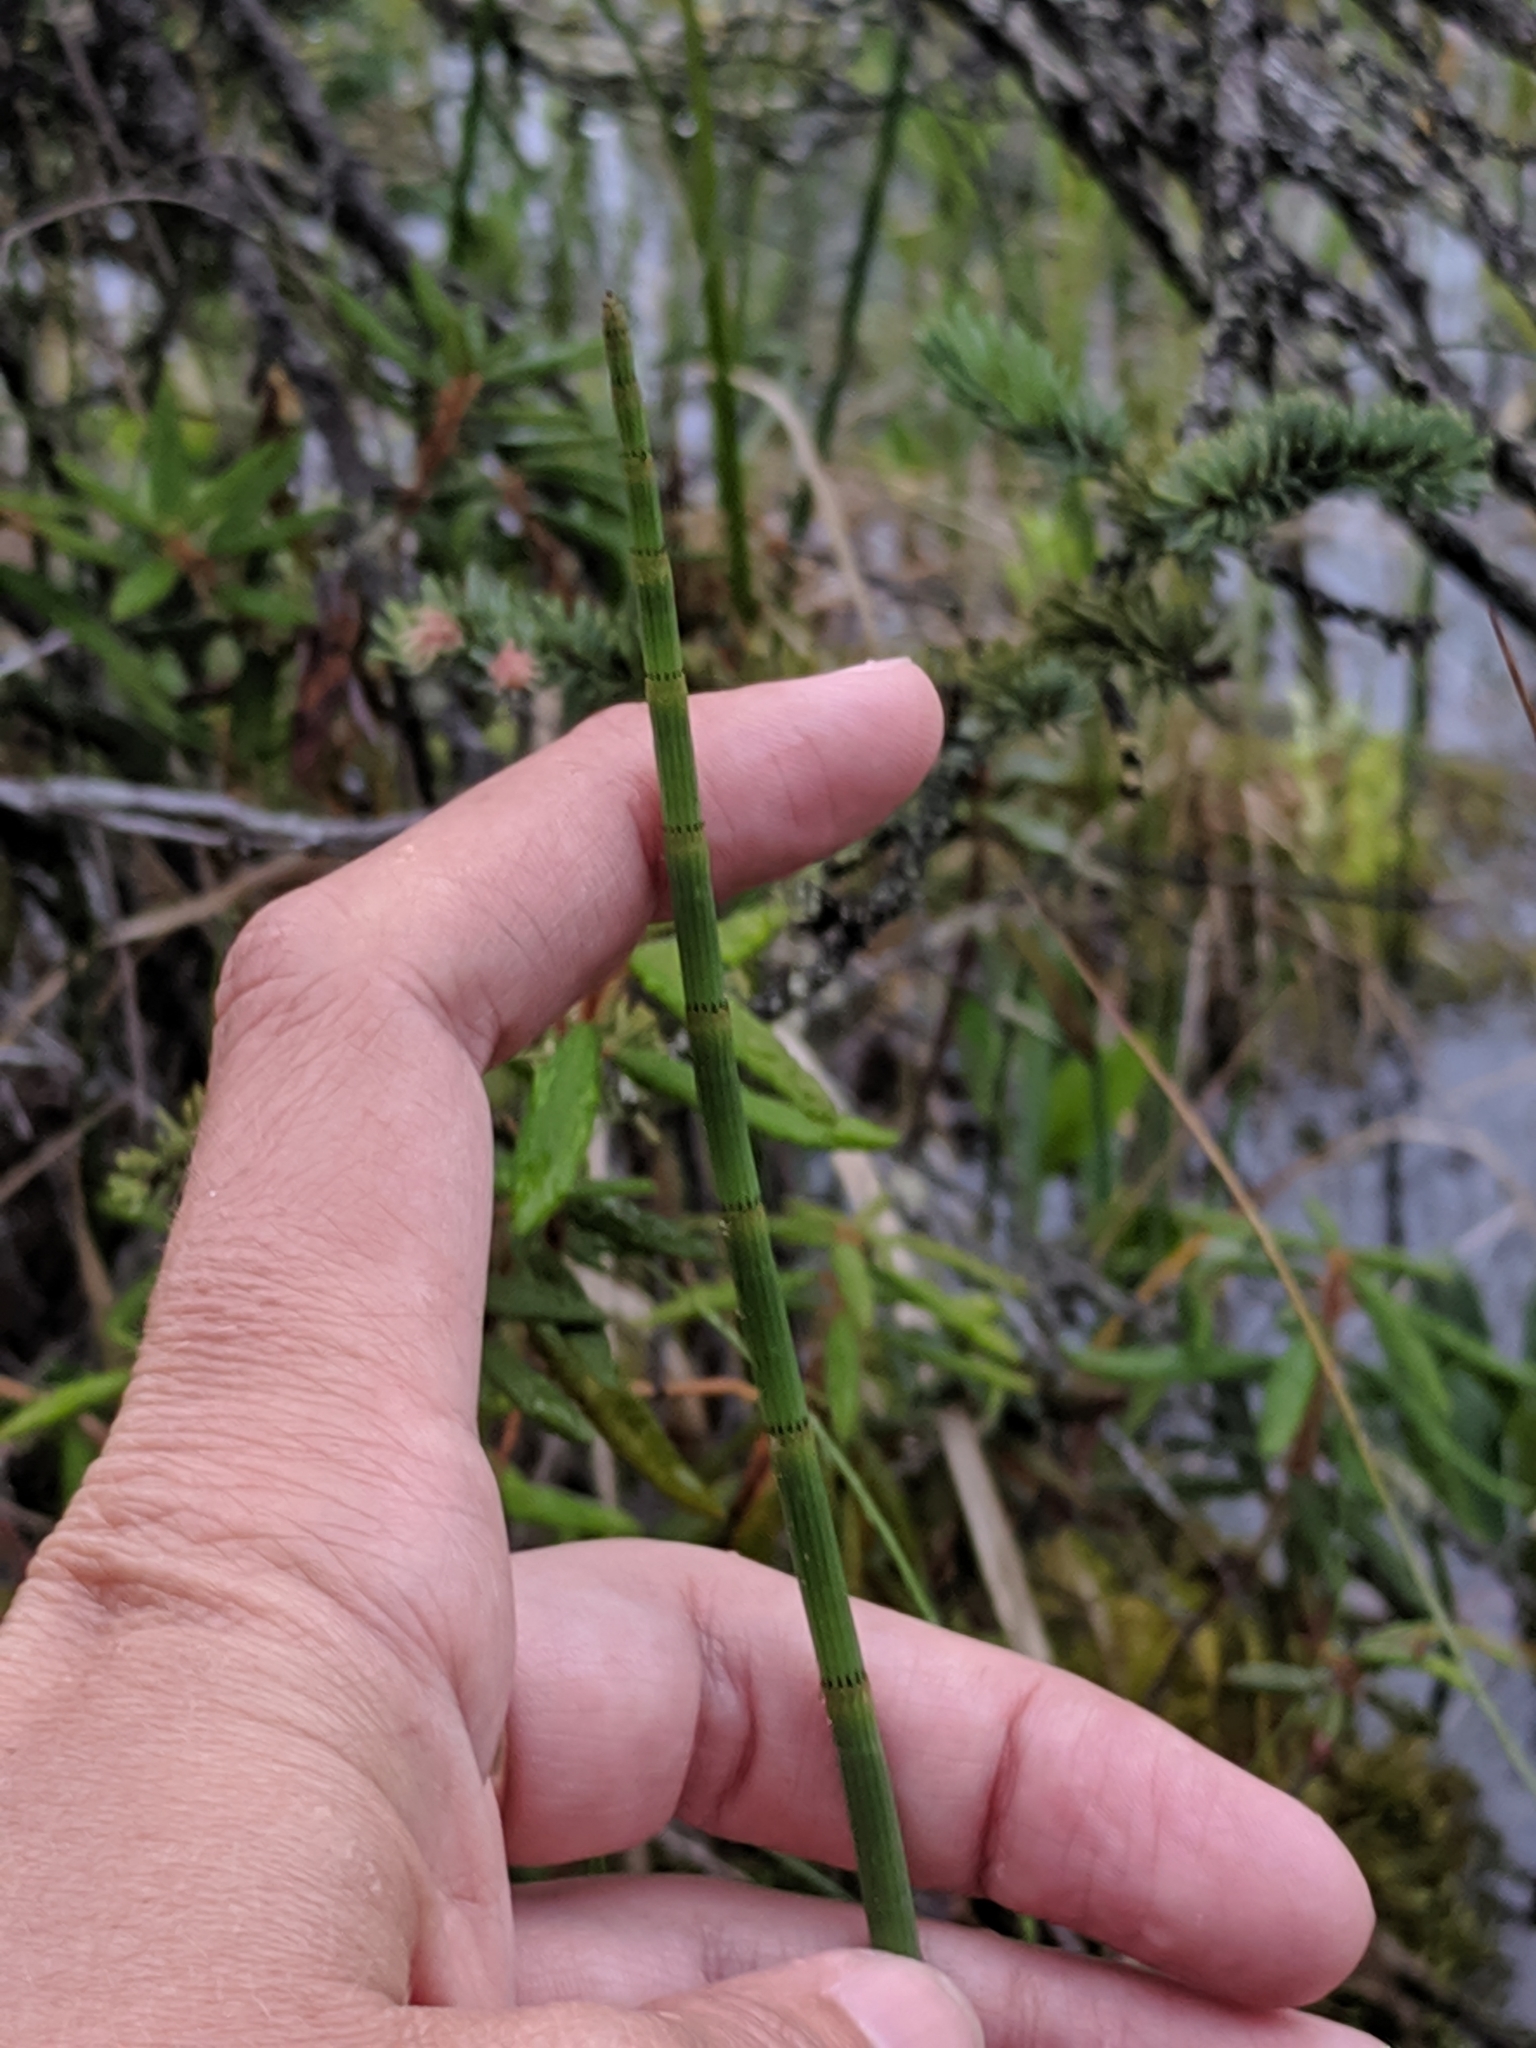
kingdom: Plantae
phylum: Tracheophyta
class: Polypodiopsida
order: Equisetales
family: Equisetaceae
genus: Equisetum
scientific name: Equisetum fluviatile
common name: Water horsetail
